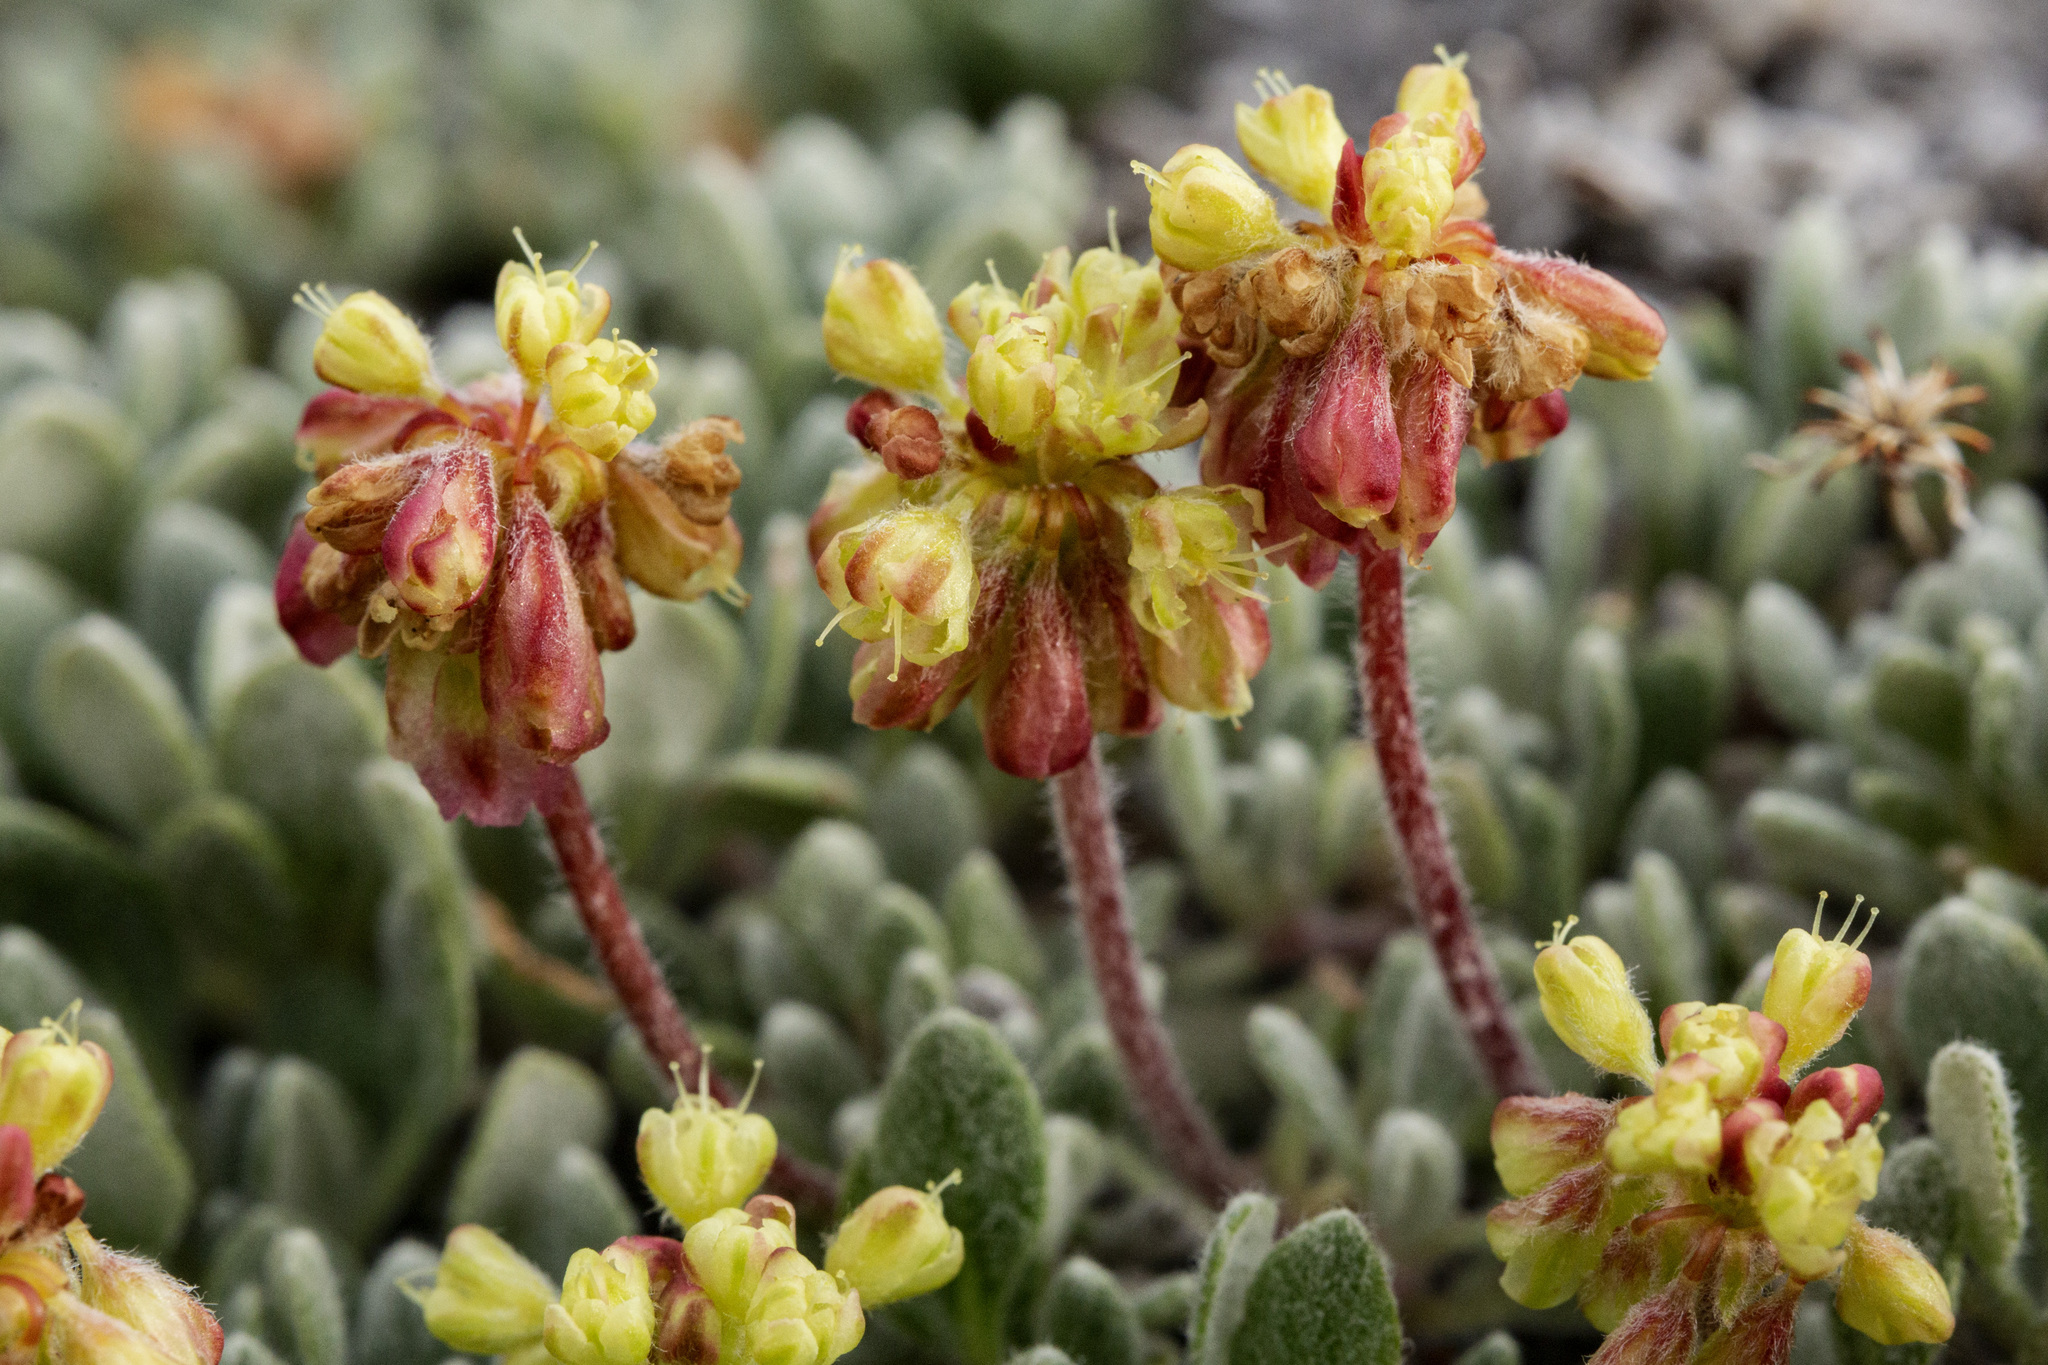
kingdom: Plantae
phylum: Tracheophyta
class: Magnoliopsida
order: Caryophyllales
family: Polygonaceae
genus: Eriogonum
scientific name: Eriogonum caespitosum
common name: Matted wild buckwheat
